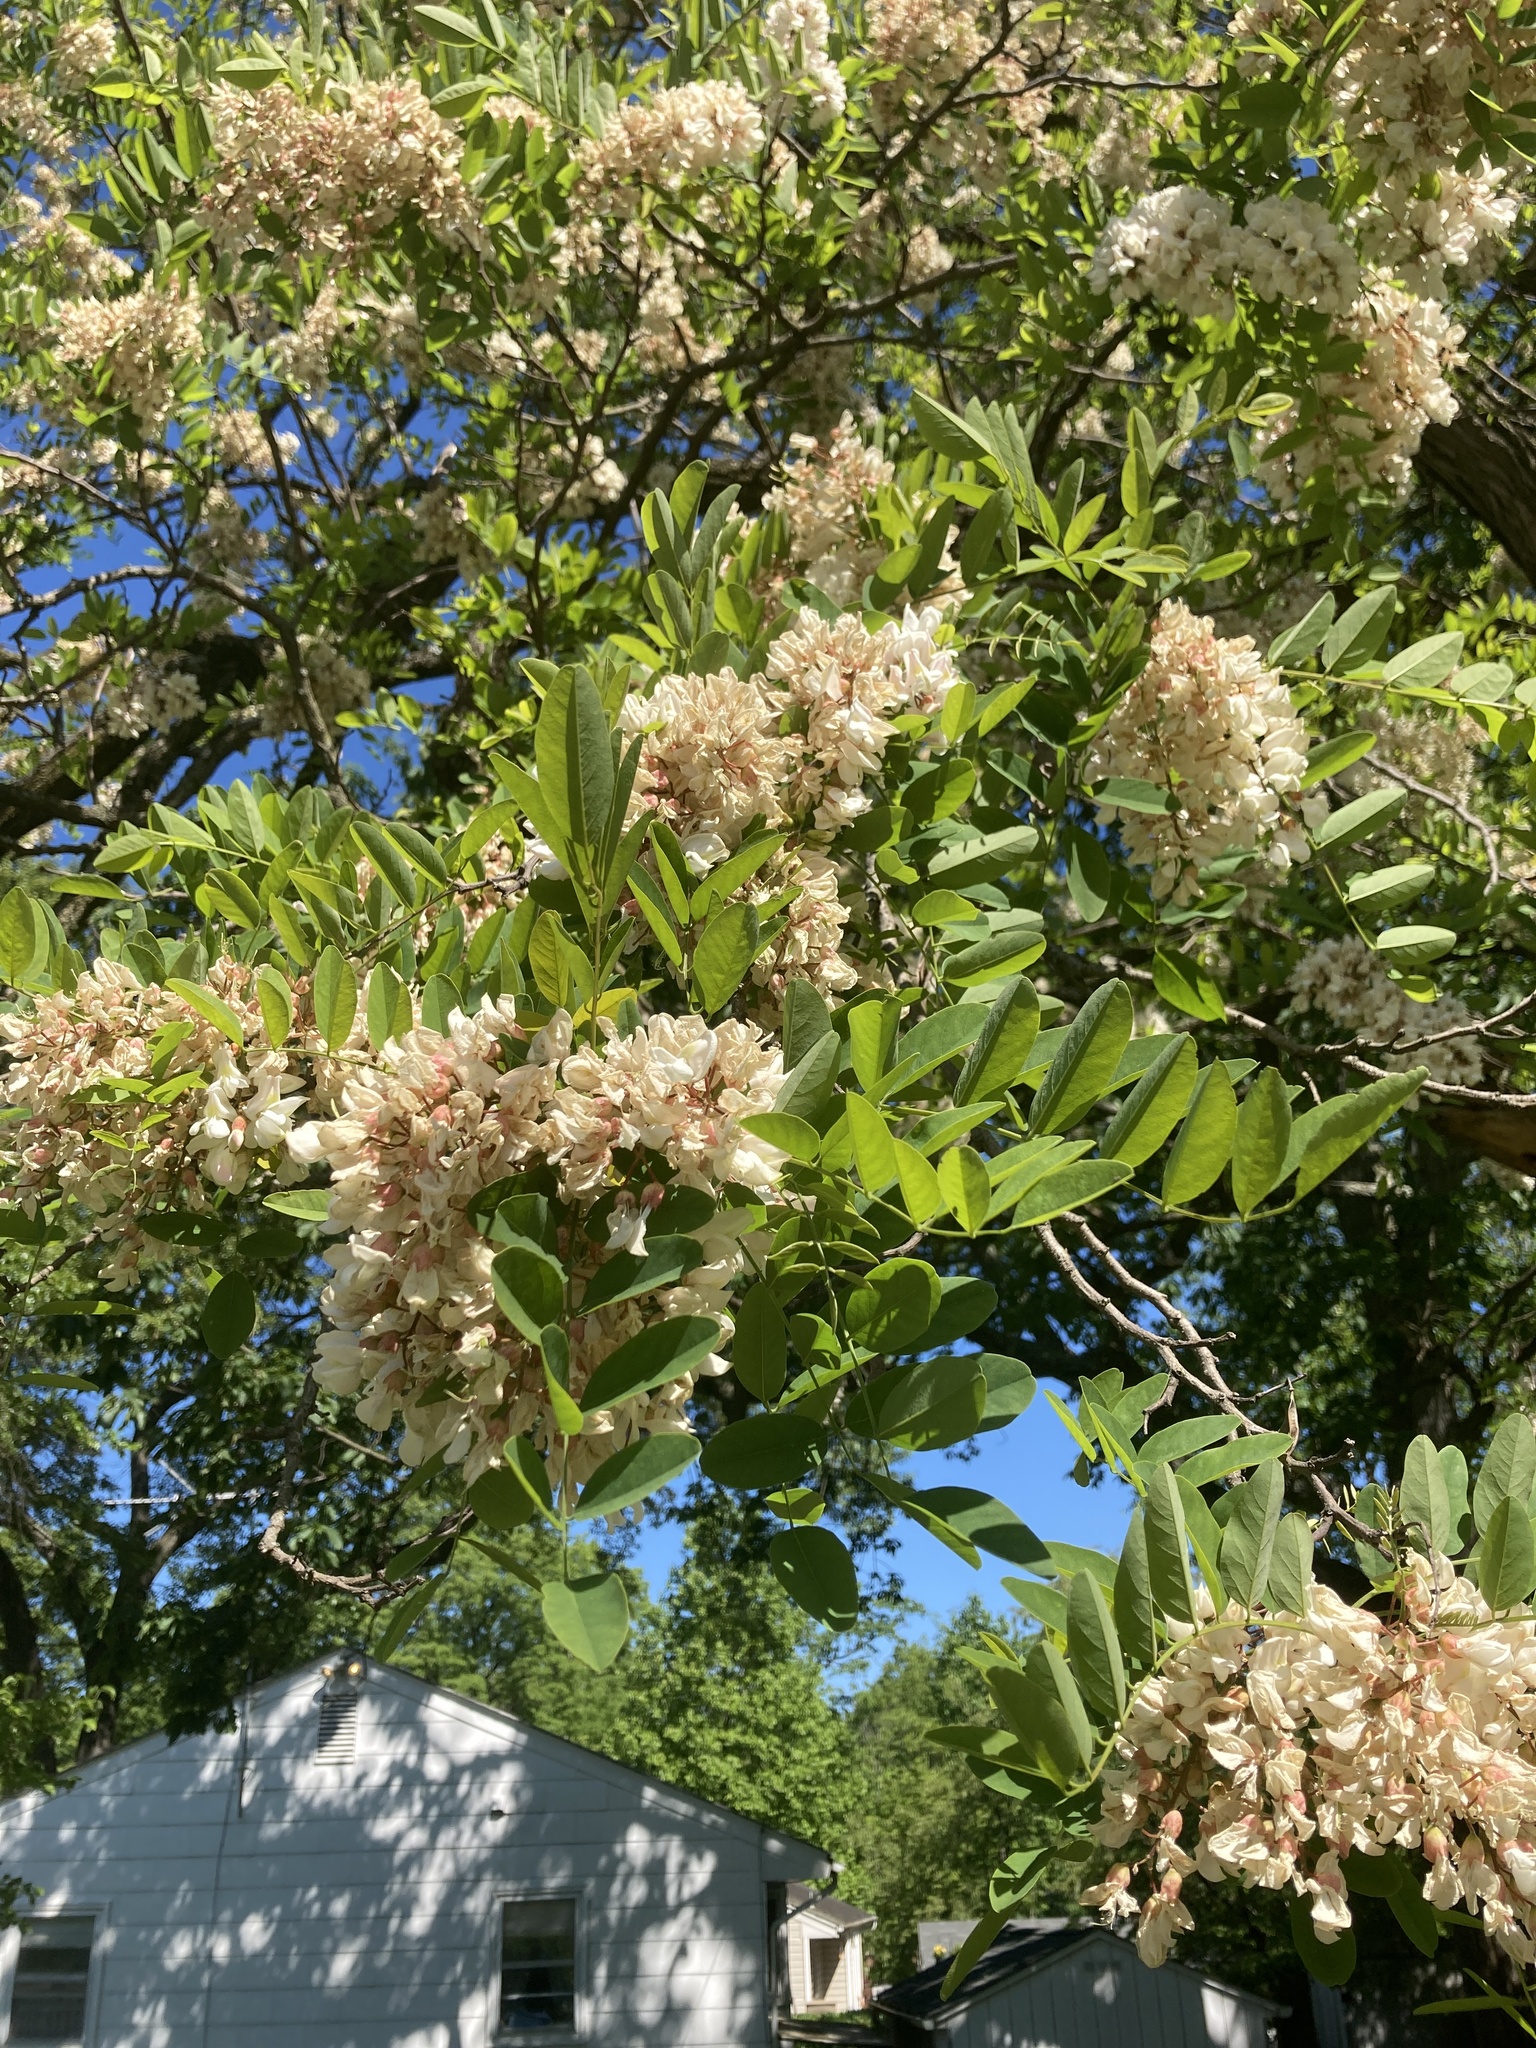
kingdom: Plantae
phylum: Tracheophyta
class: Magnoliopsida
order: Fabales
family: Fabaceae
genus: Robinia
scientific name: Robinia pseudoacacia
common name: Black locust
